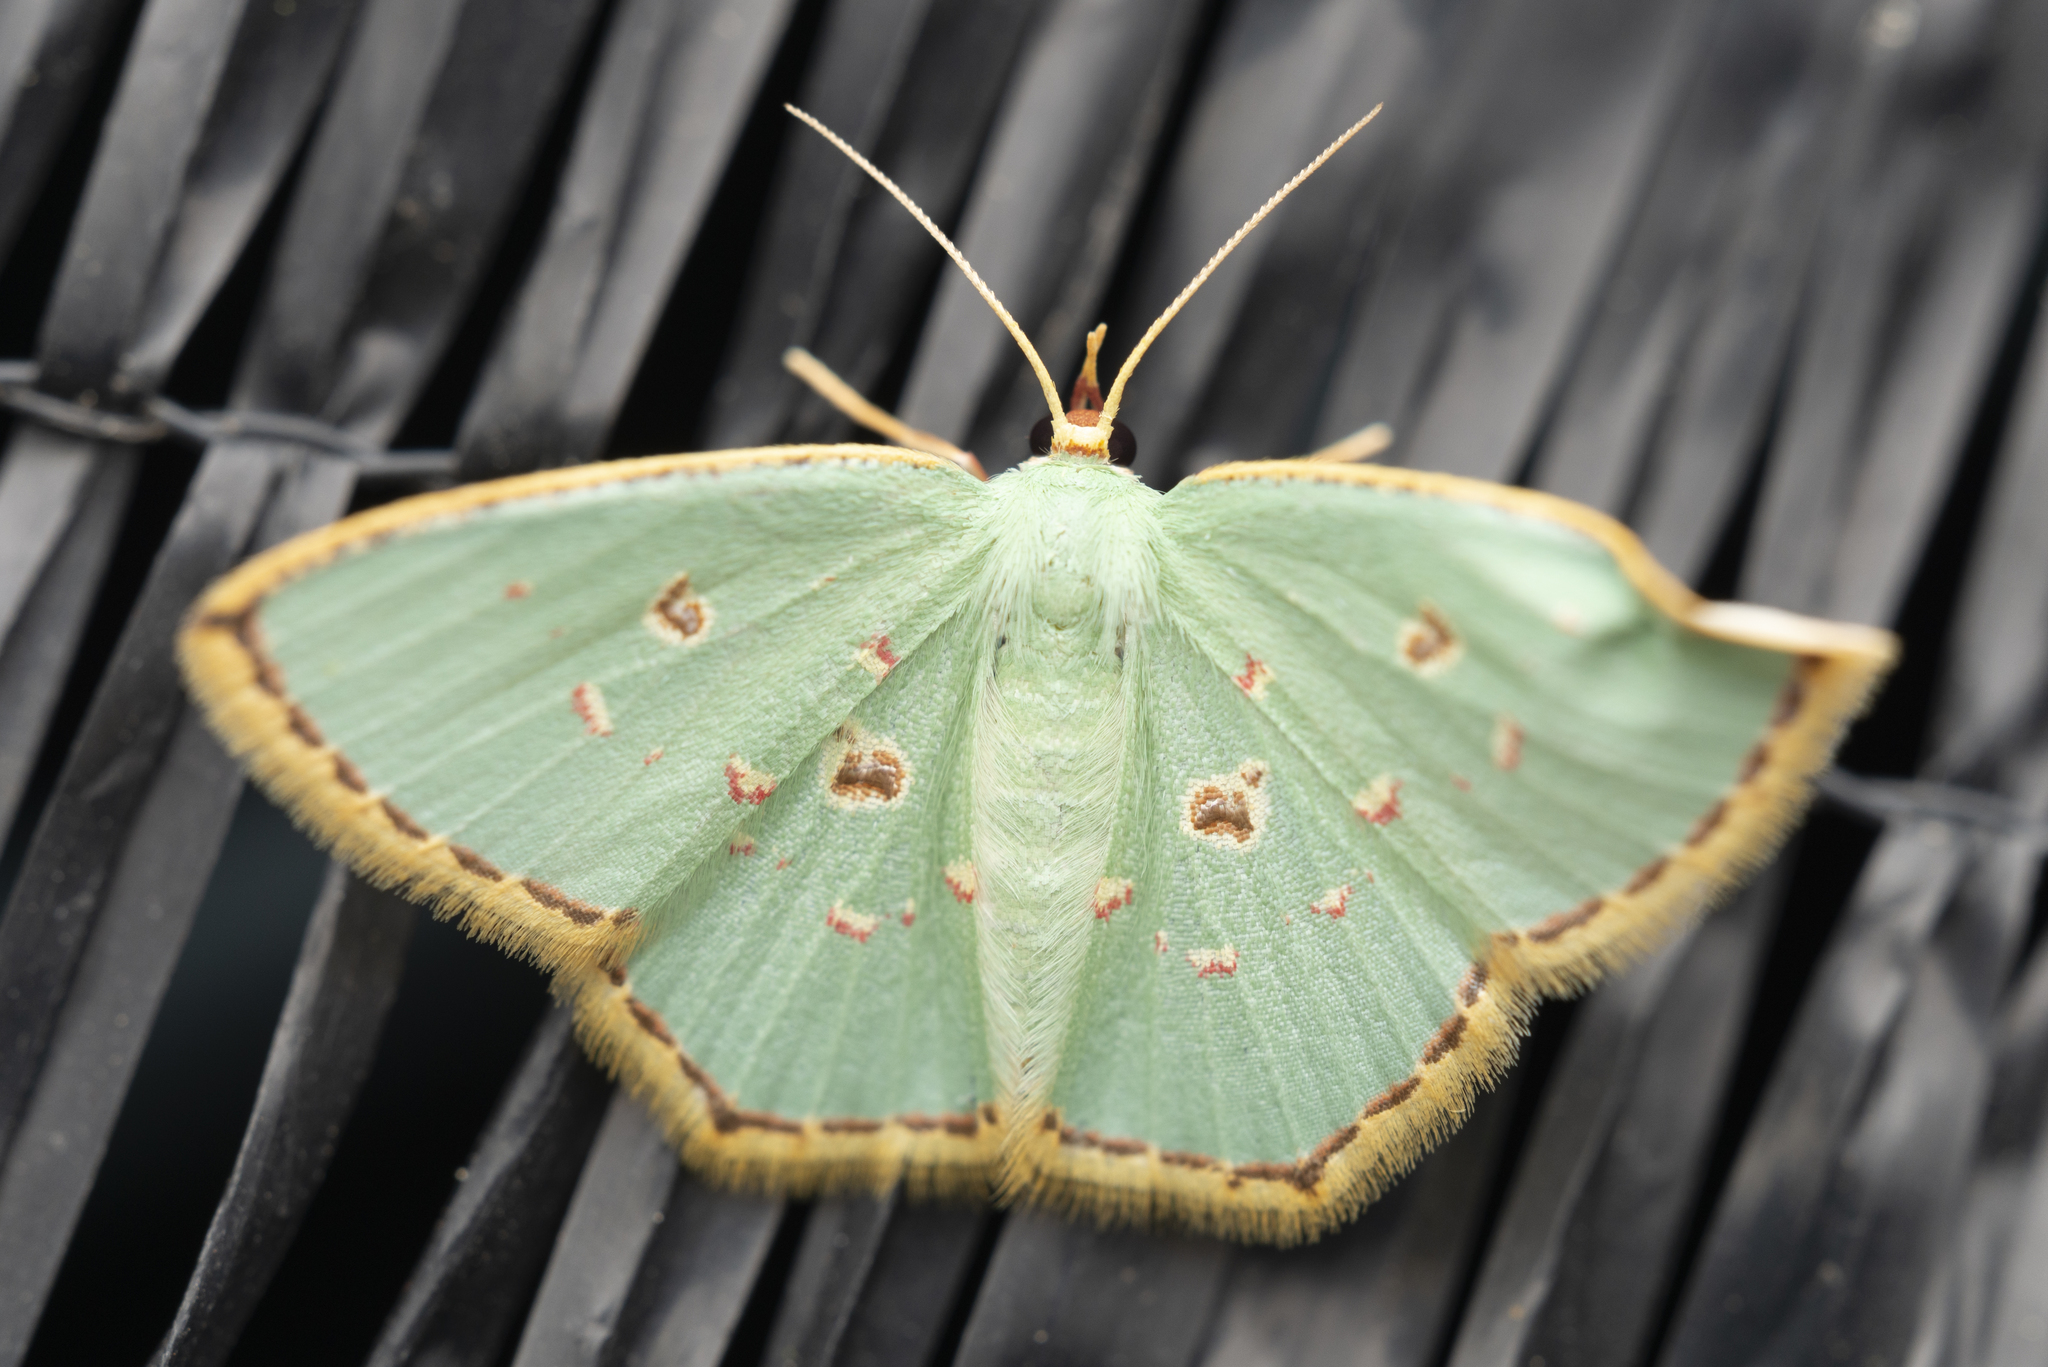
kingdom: Animalia
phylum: Arthropoda
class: Insecta
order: Lepidoptera
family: Geometridae
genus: Comostola
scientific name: Comostola meritaria
